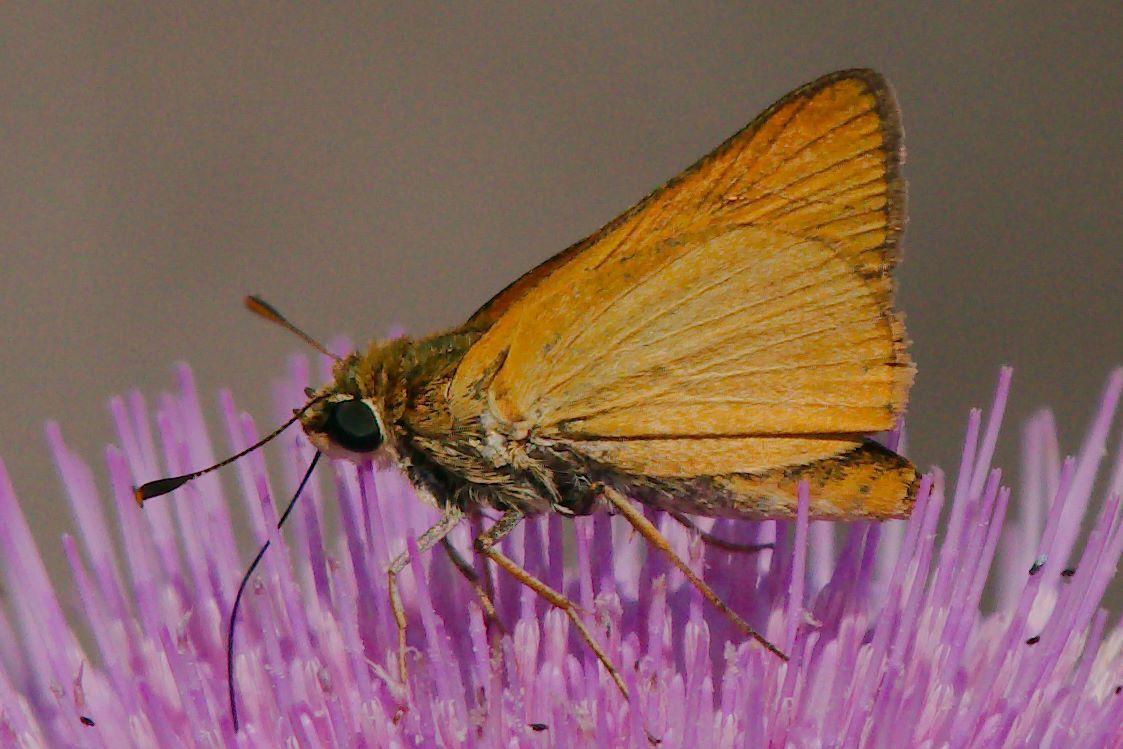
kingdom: Animalia
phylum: Arthropoda
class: Insecta
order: Lepidoptera
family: Hesperiidae
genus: Atrytone
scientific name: Atrytone delaware
